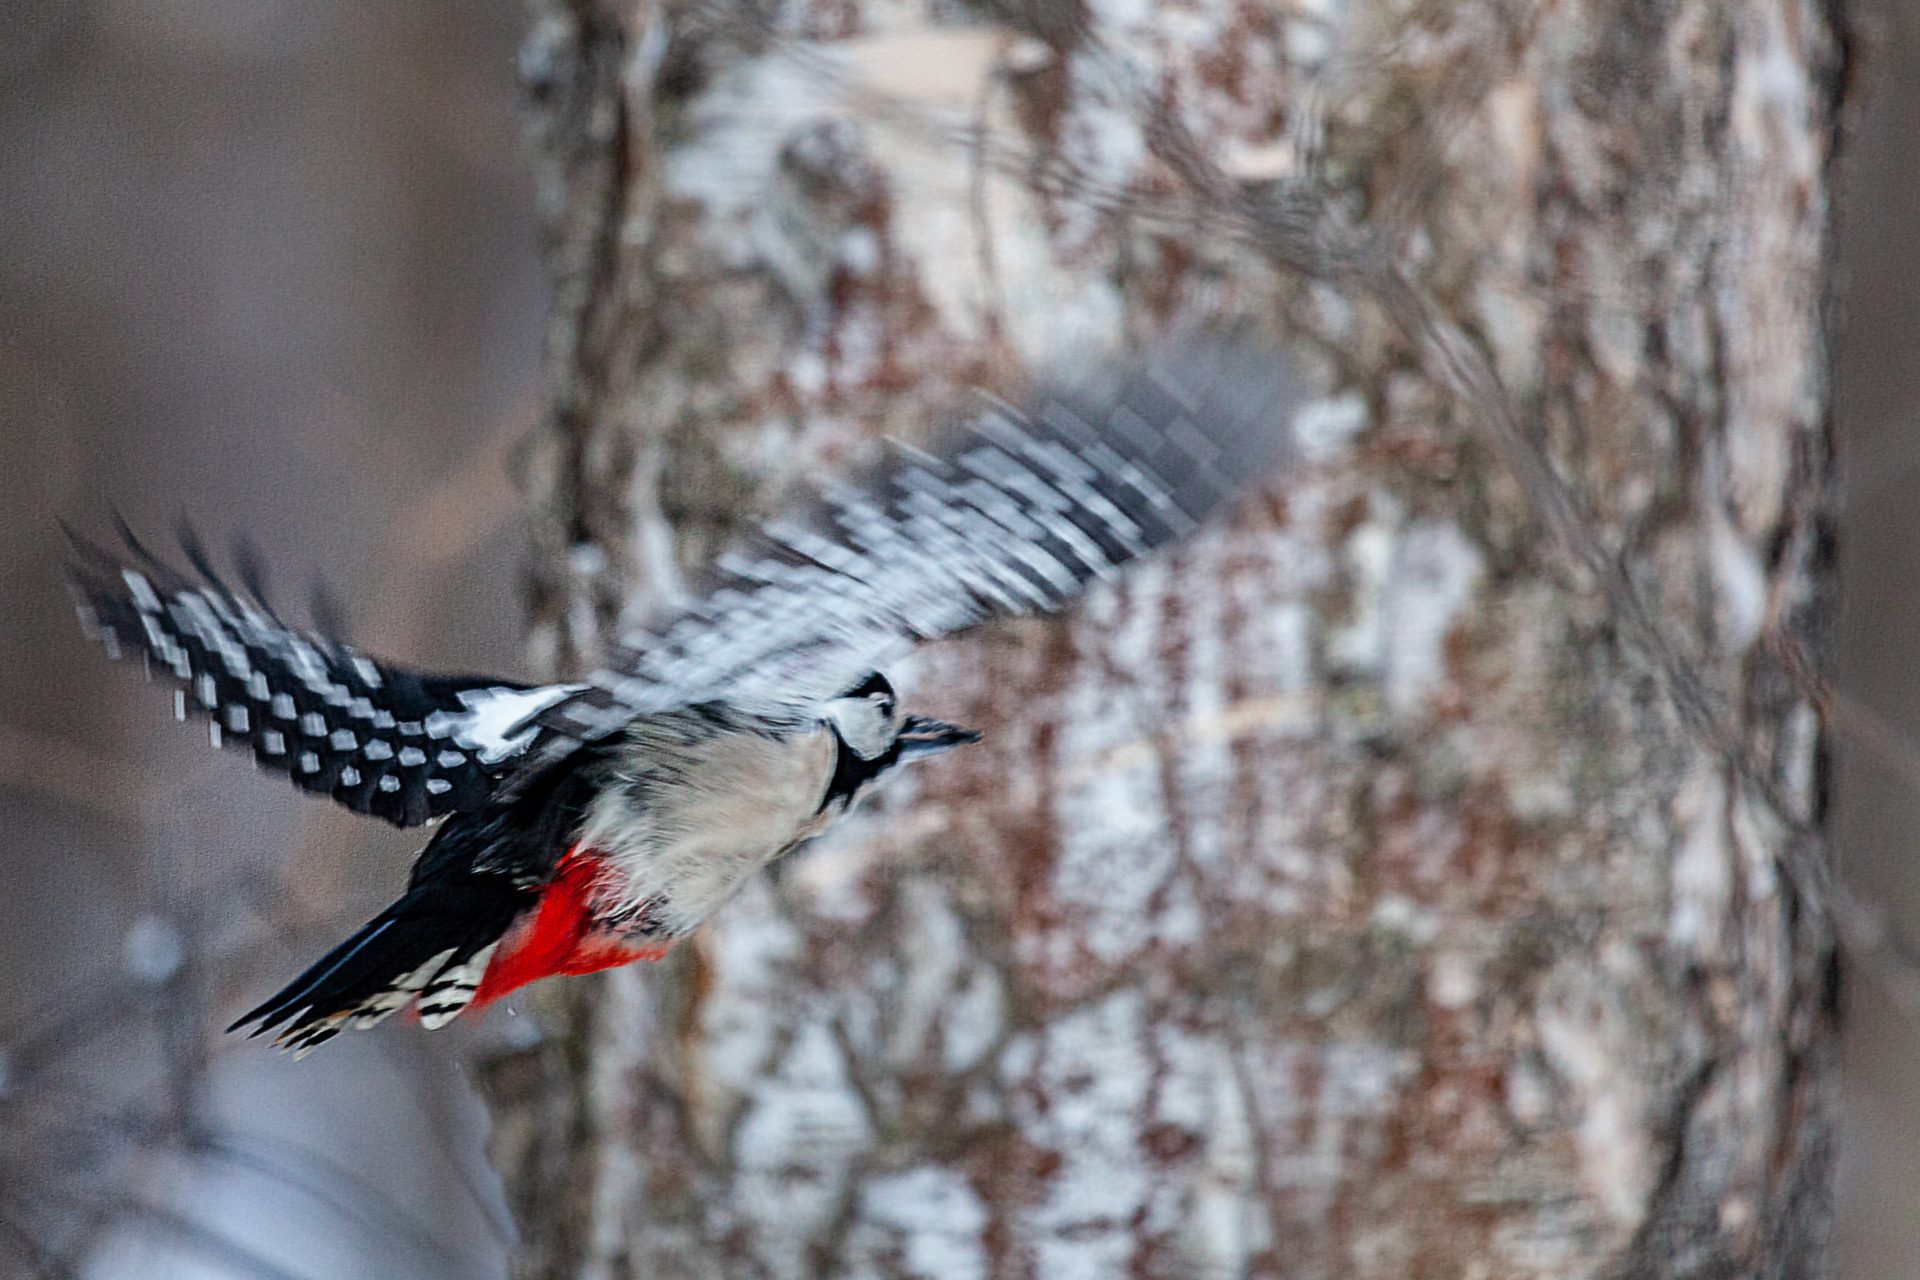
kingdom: Animalia
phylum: Chordata
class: Aves
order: Piciformes
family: Picidae
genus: Dendrocopos
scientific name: Dendrocopos major
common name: Great spotted woodpecker
